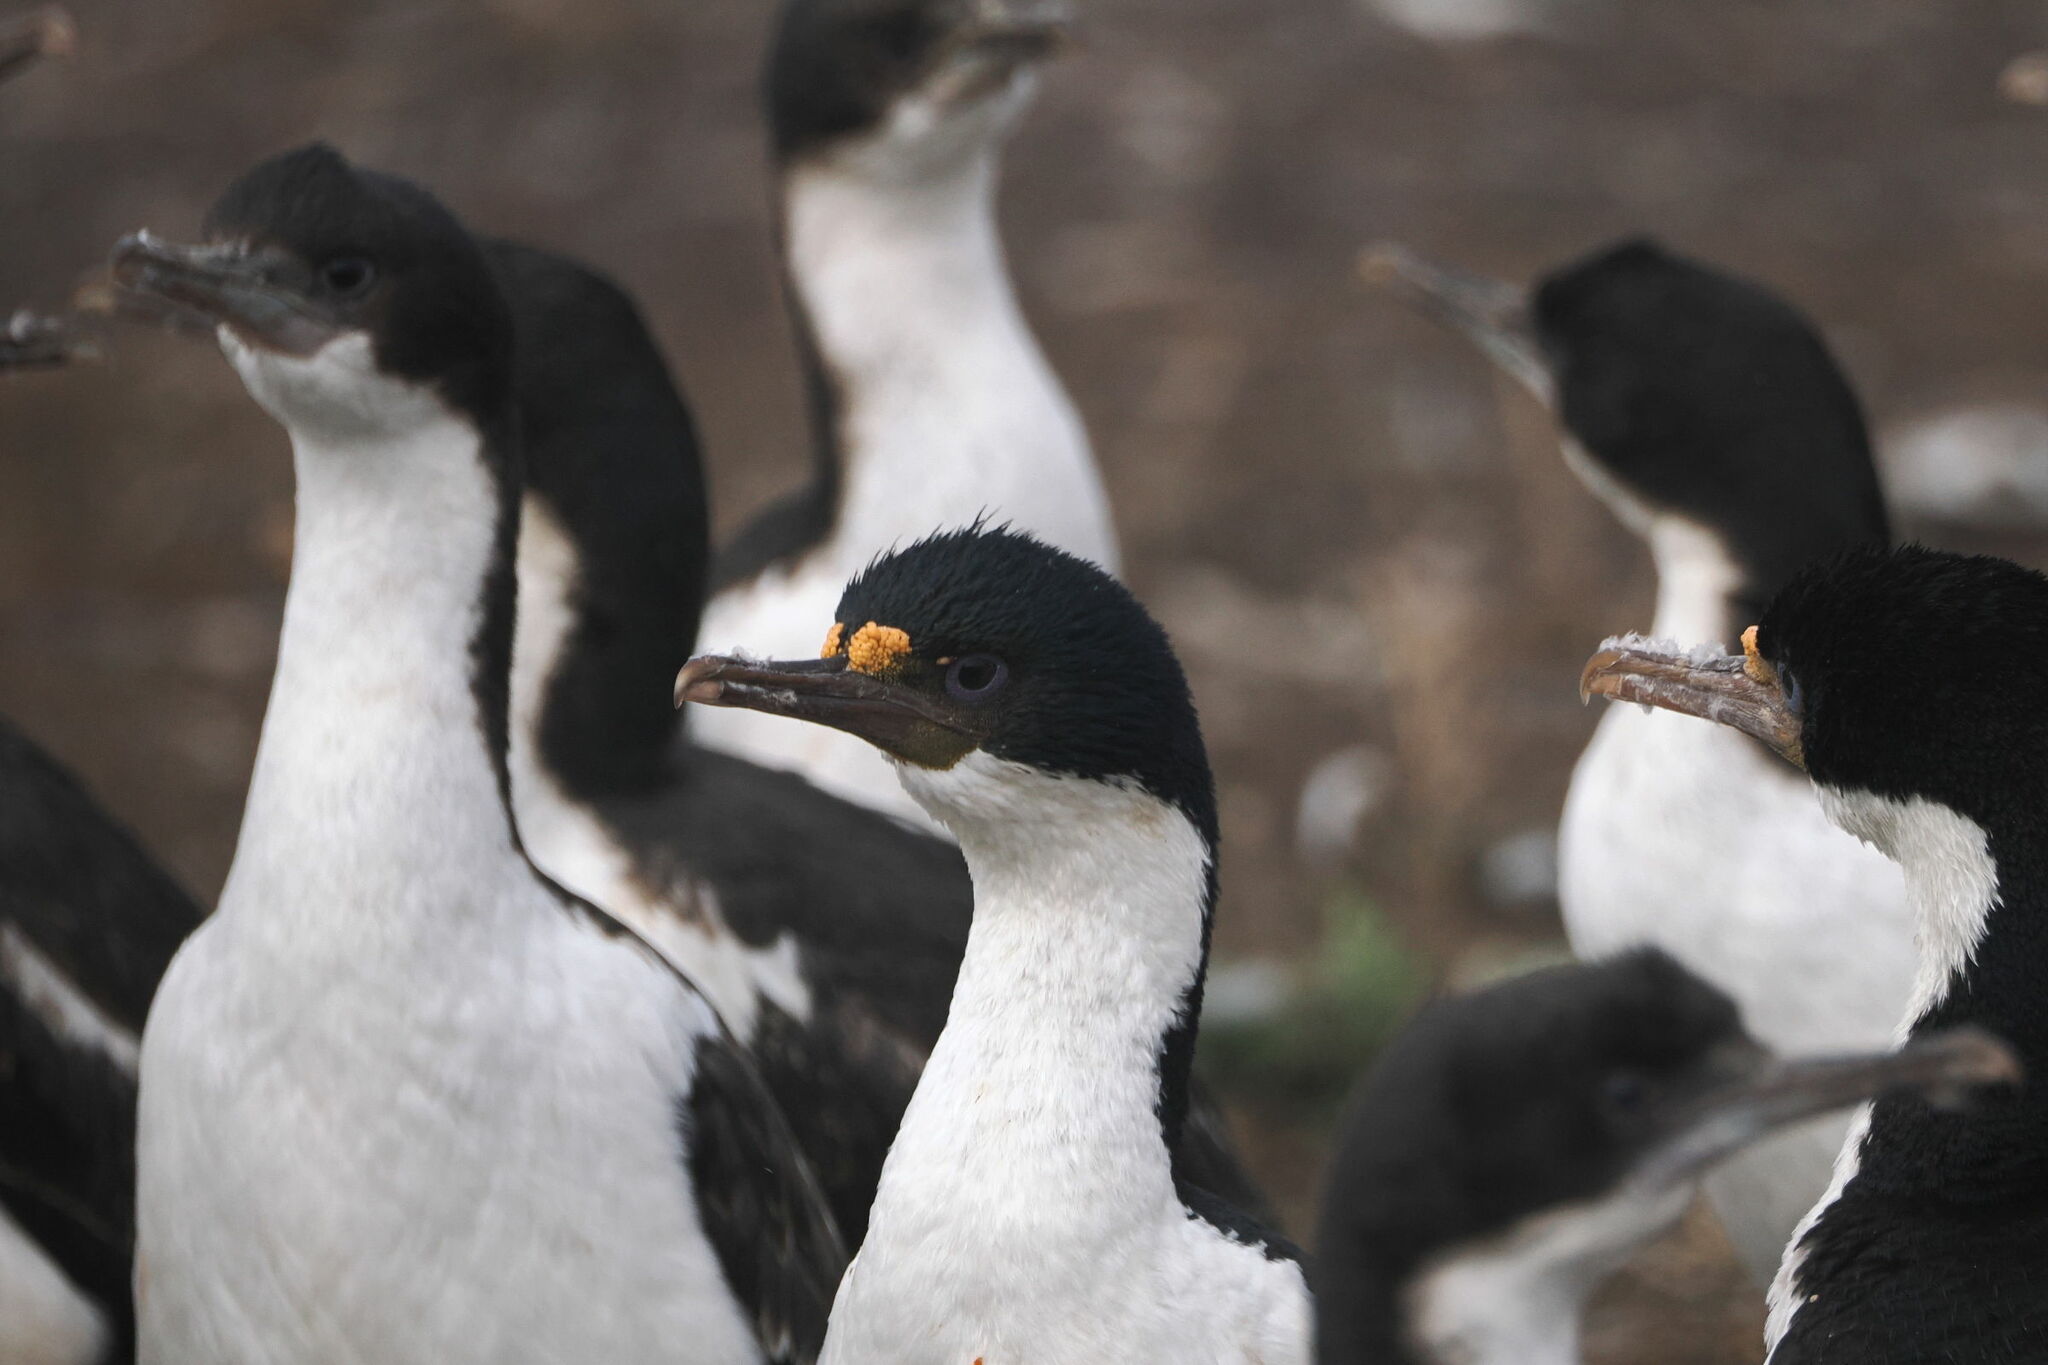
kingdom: Animalia
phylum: Chordata
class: Aves
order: Suliformes
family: Phalacrocoracidae
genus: Leucocarbo
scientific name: Leucocarbo albiventer
